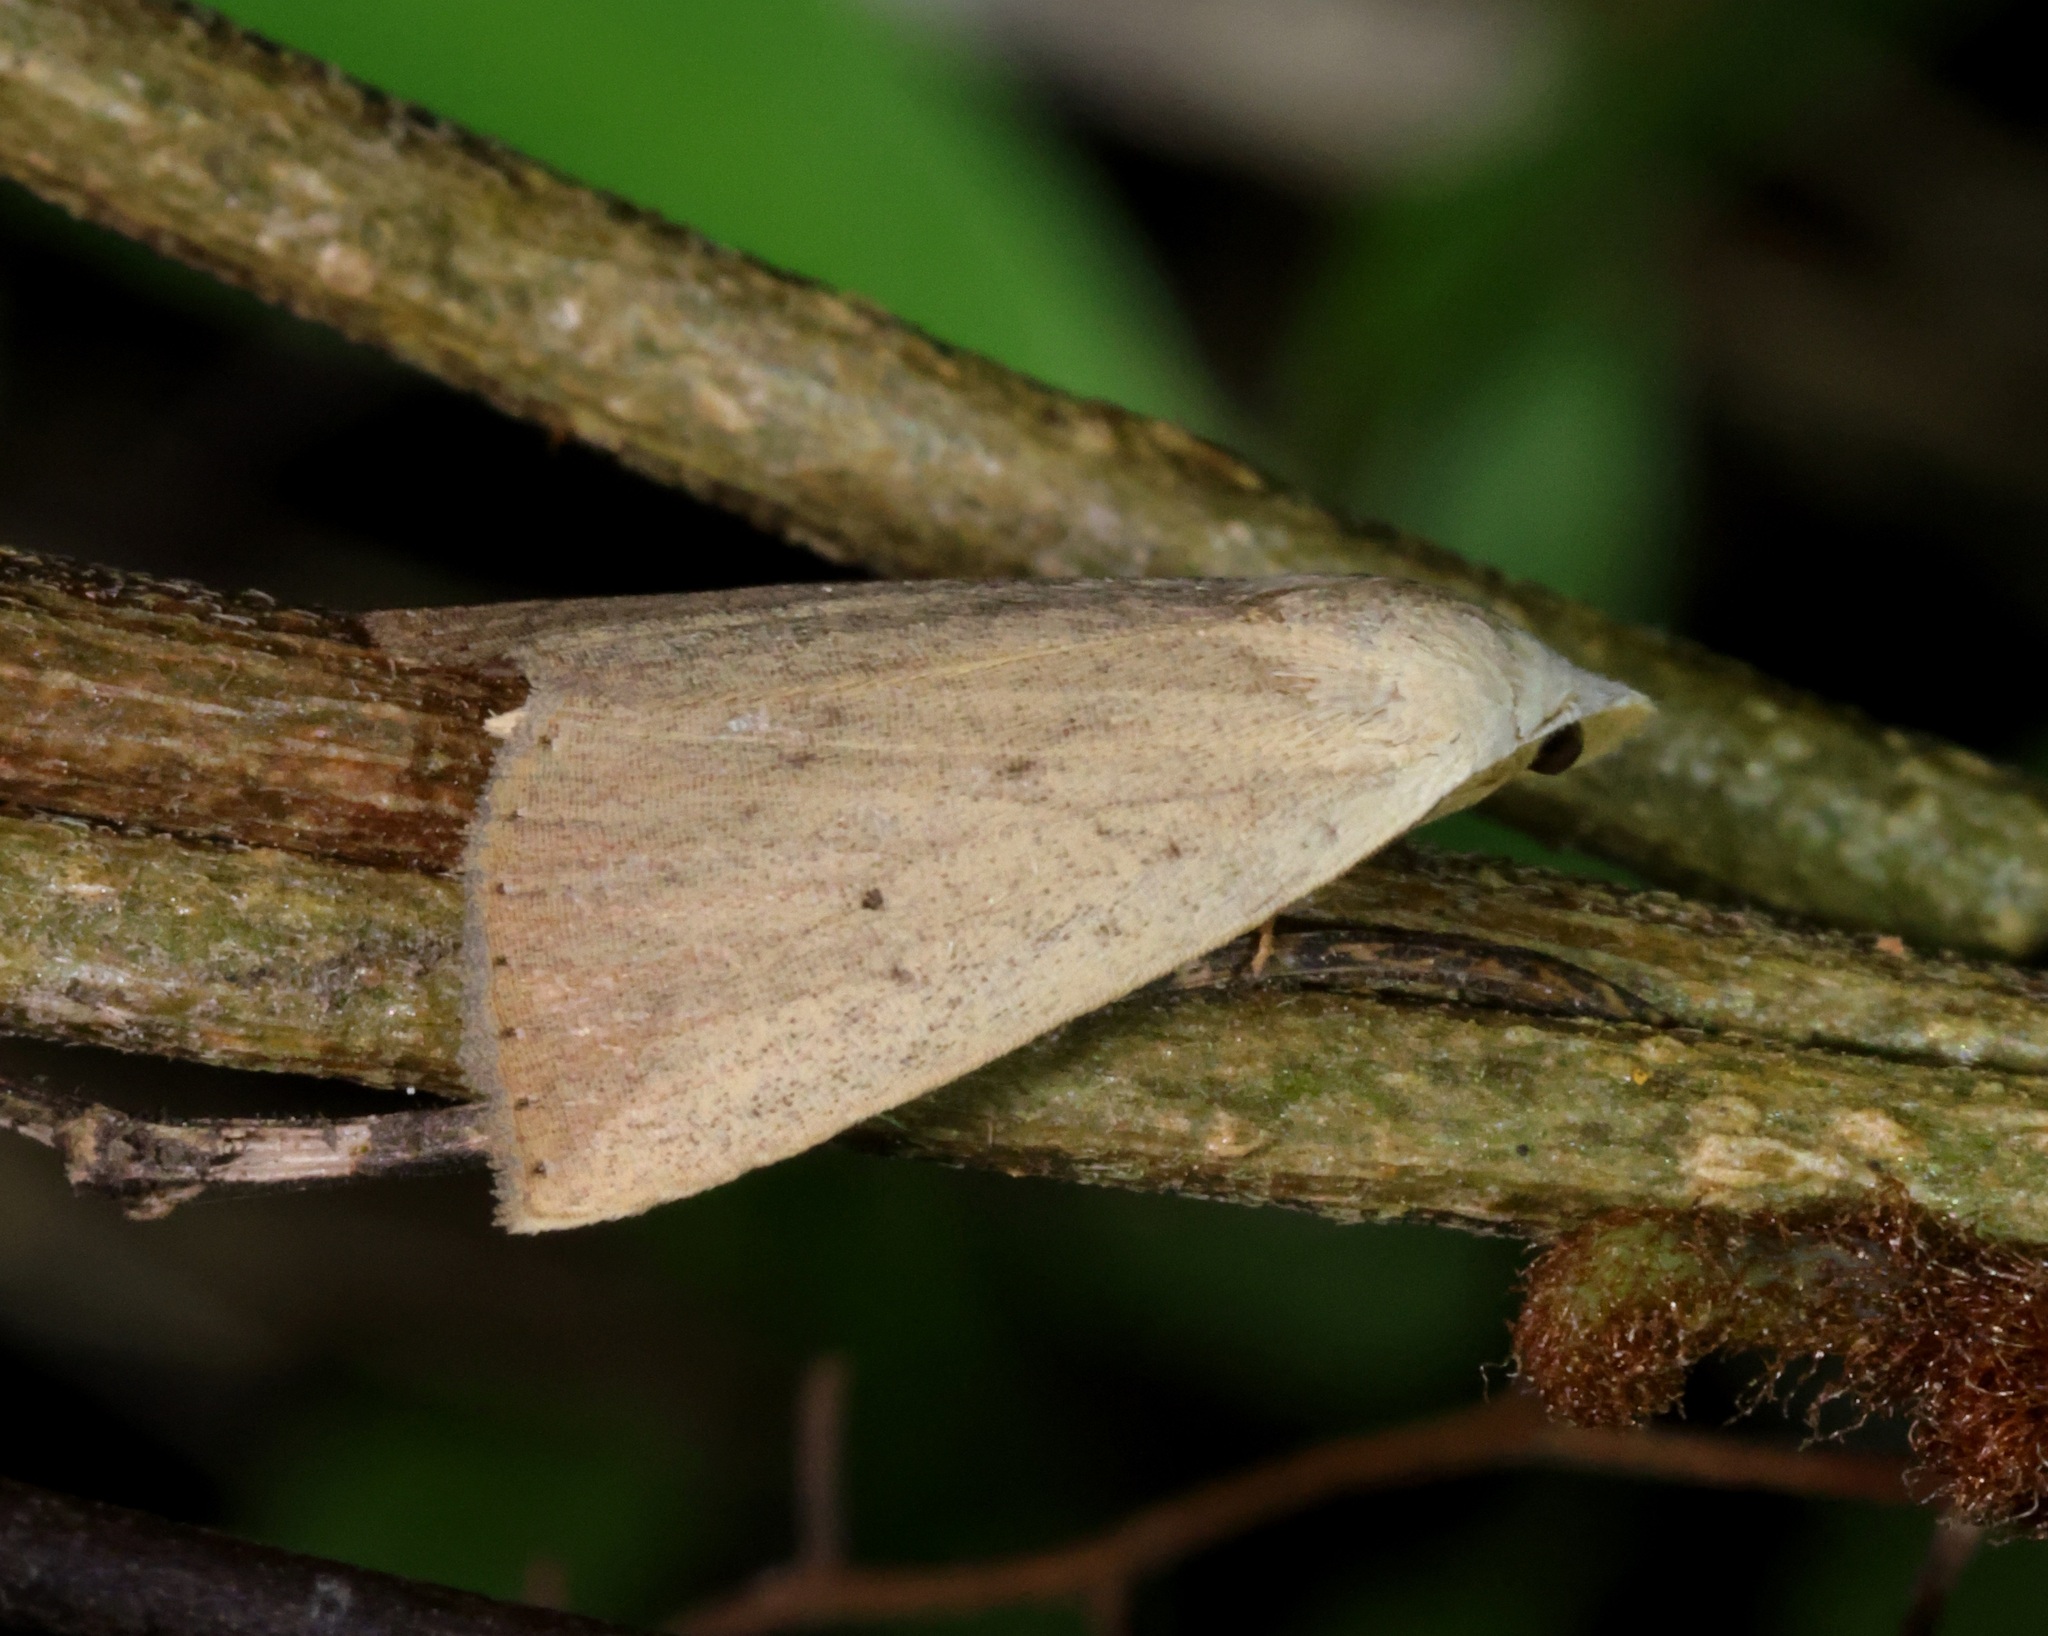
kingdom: Animalia
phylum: Arthropoda
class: Insecta
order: Lepidoptera
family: Erebidae
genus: Rivula
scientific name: Rivula ochracea
